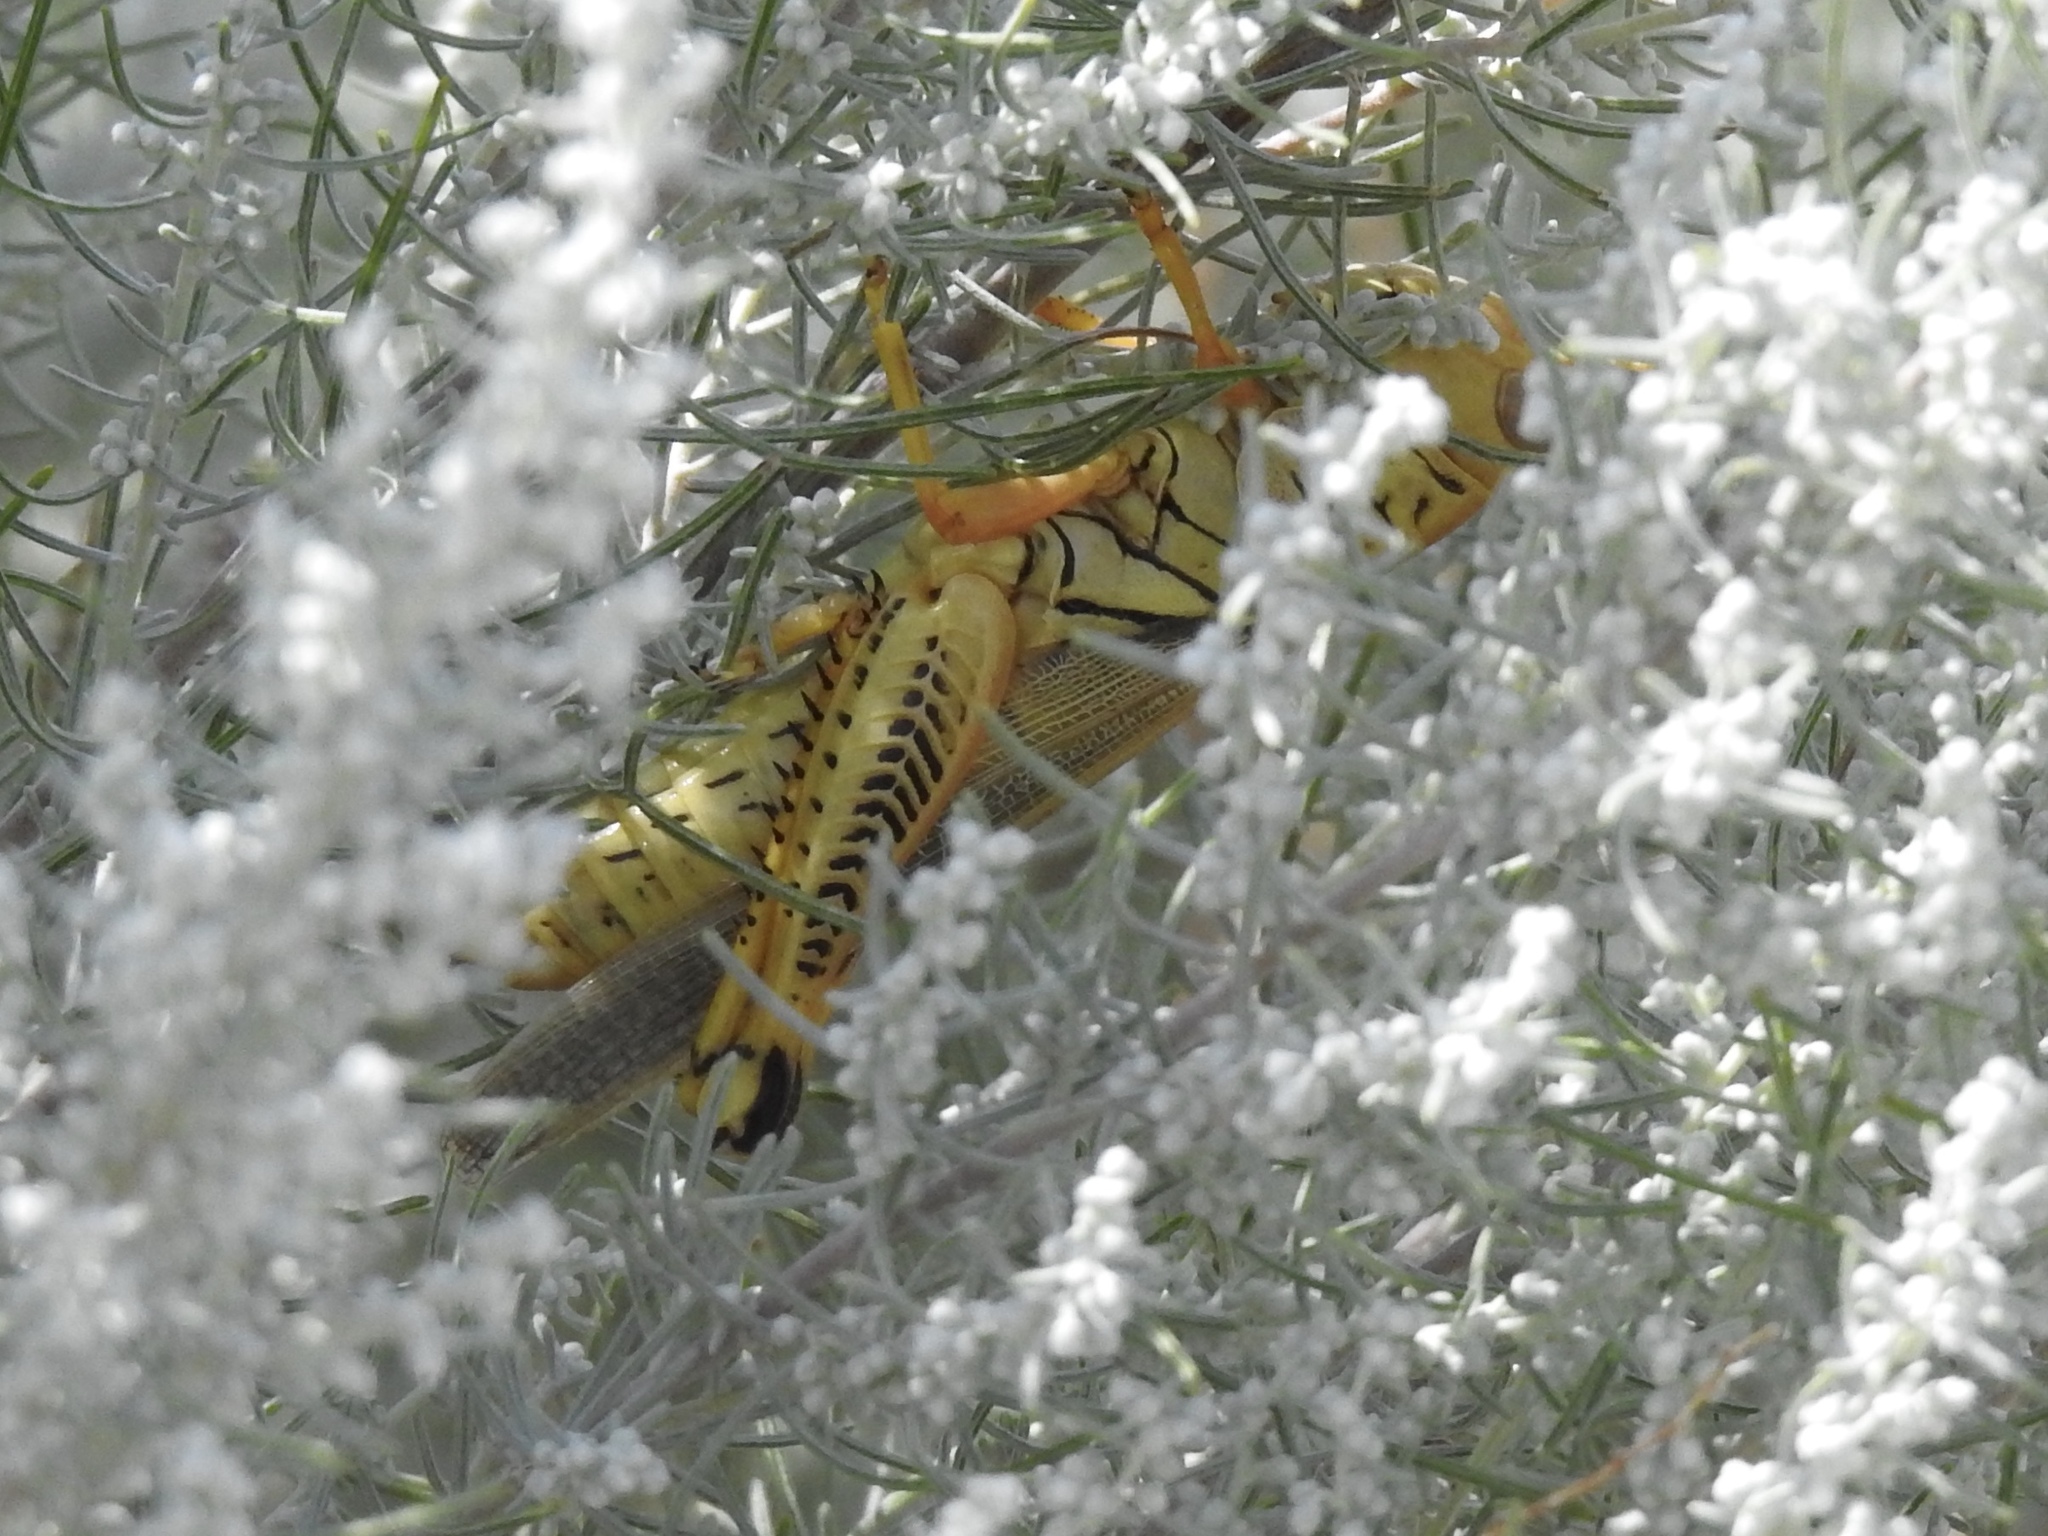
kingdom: Animalia
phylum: Arthropoda
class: Insecta
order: Orthoptera
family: Acrididae
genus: Melanoplus
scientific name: Melanoplus differentialis
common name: Differential grasshopper
